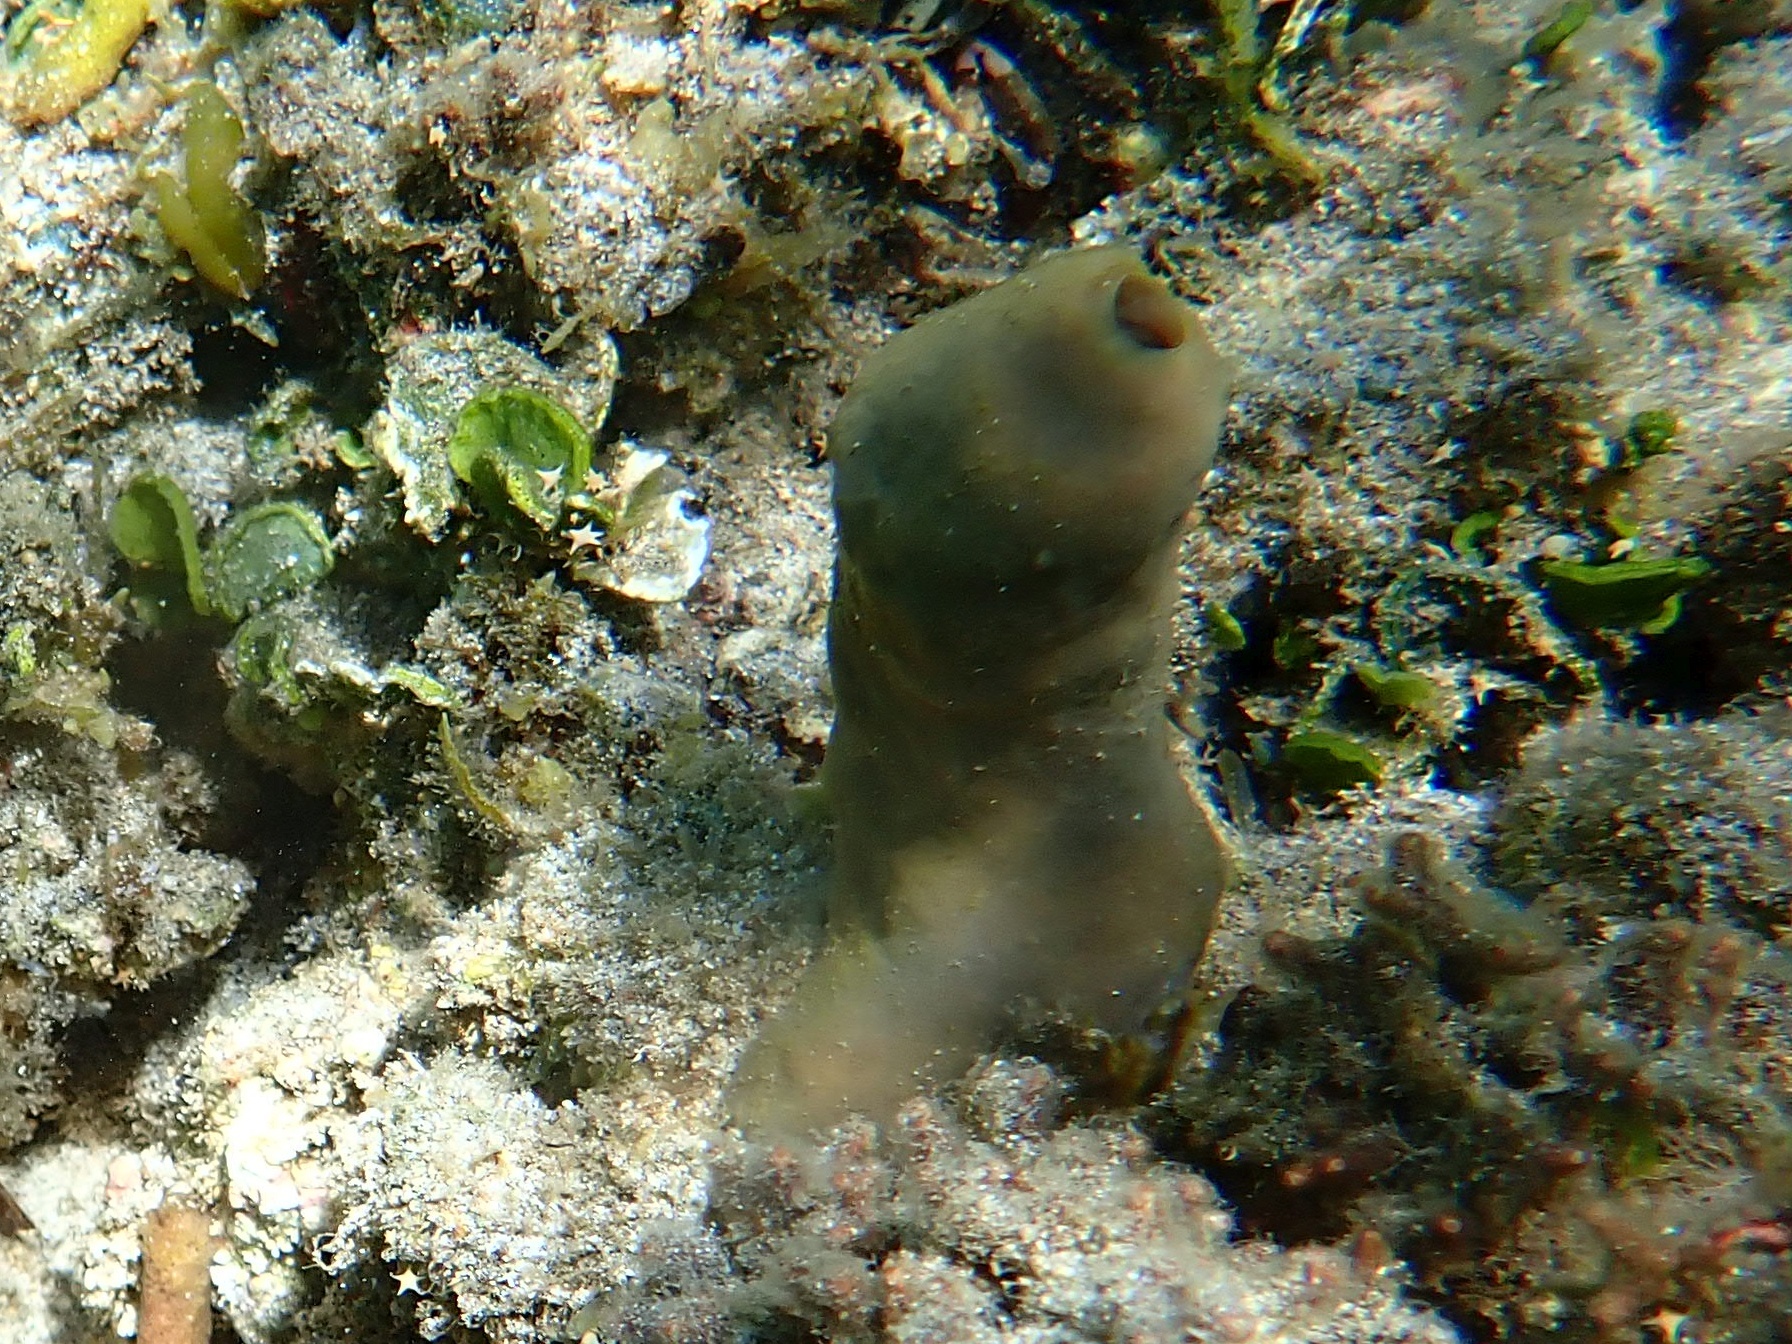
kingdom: Animalia
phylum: Porifera
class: Demospongiae
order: Clionaida
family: Clionaidae
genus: Spheciospongia
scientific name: Spheciospongia inconstans
